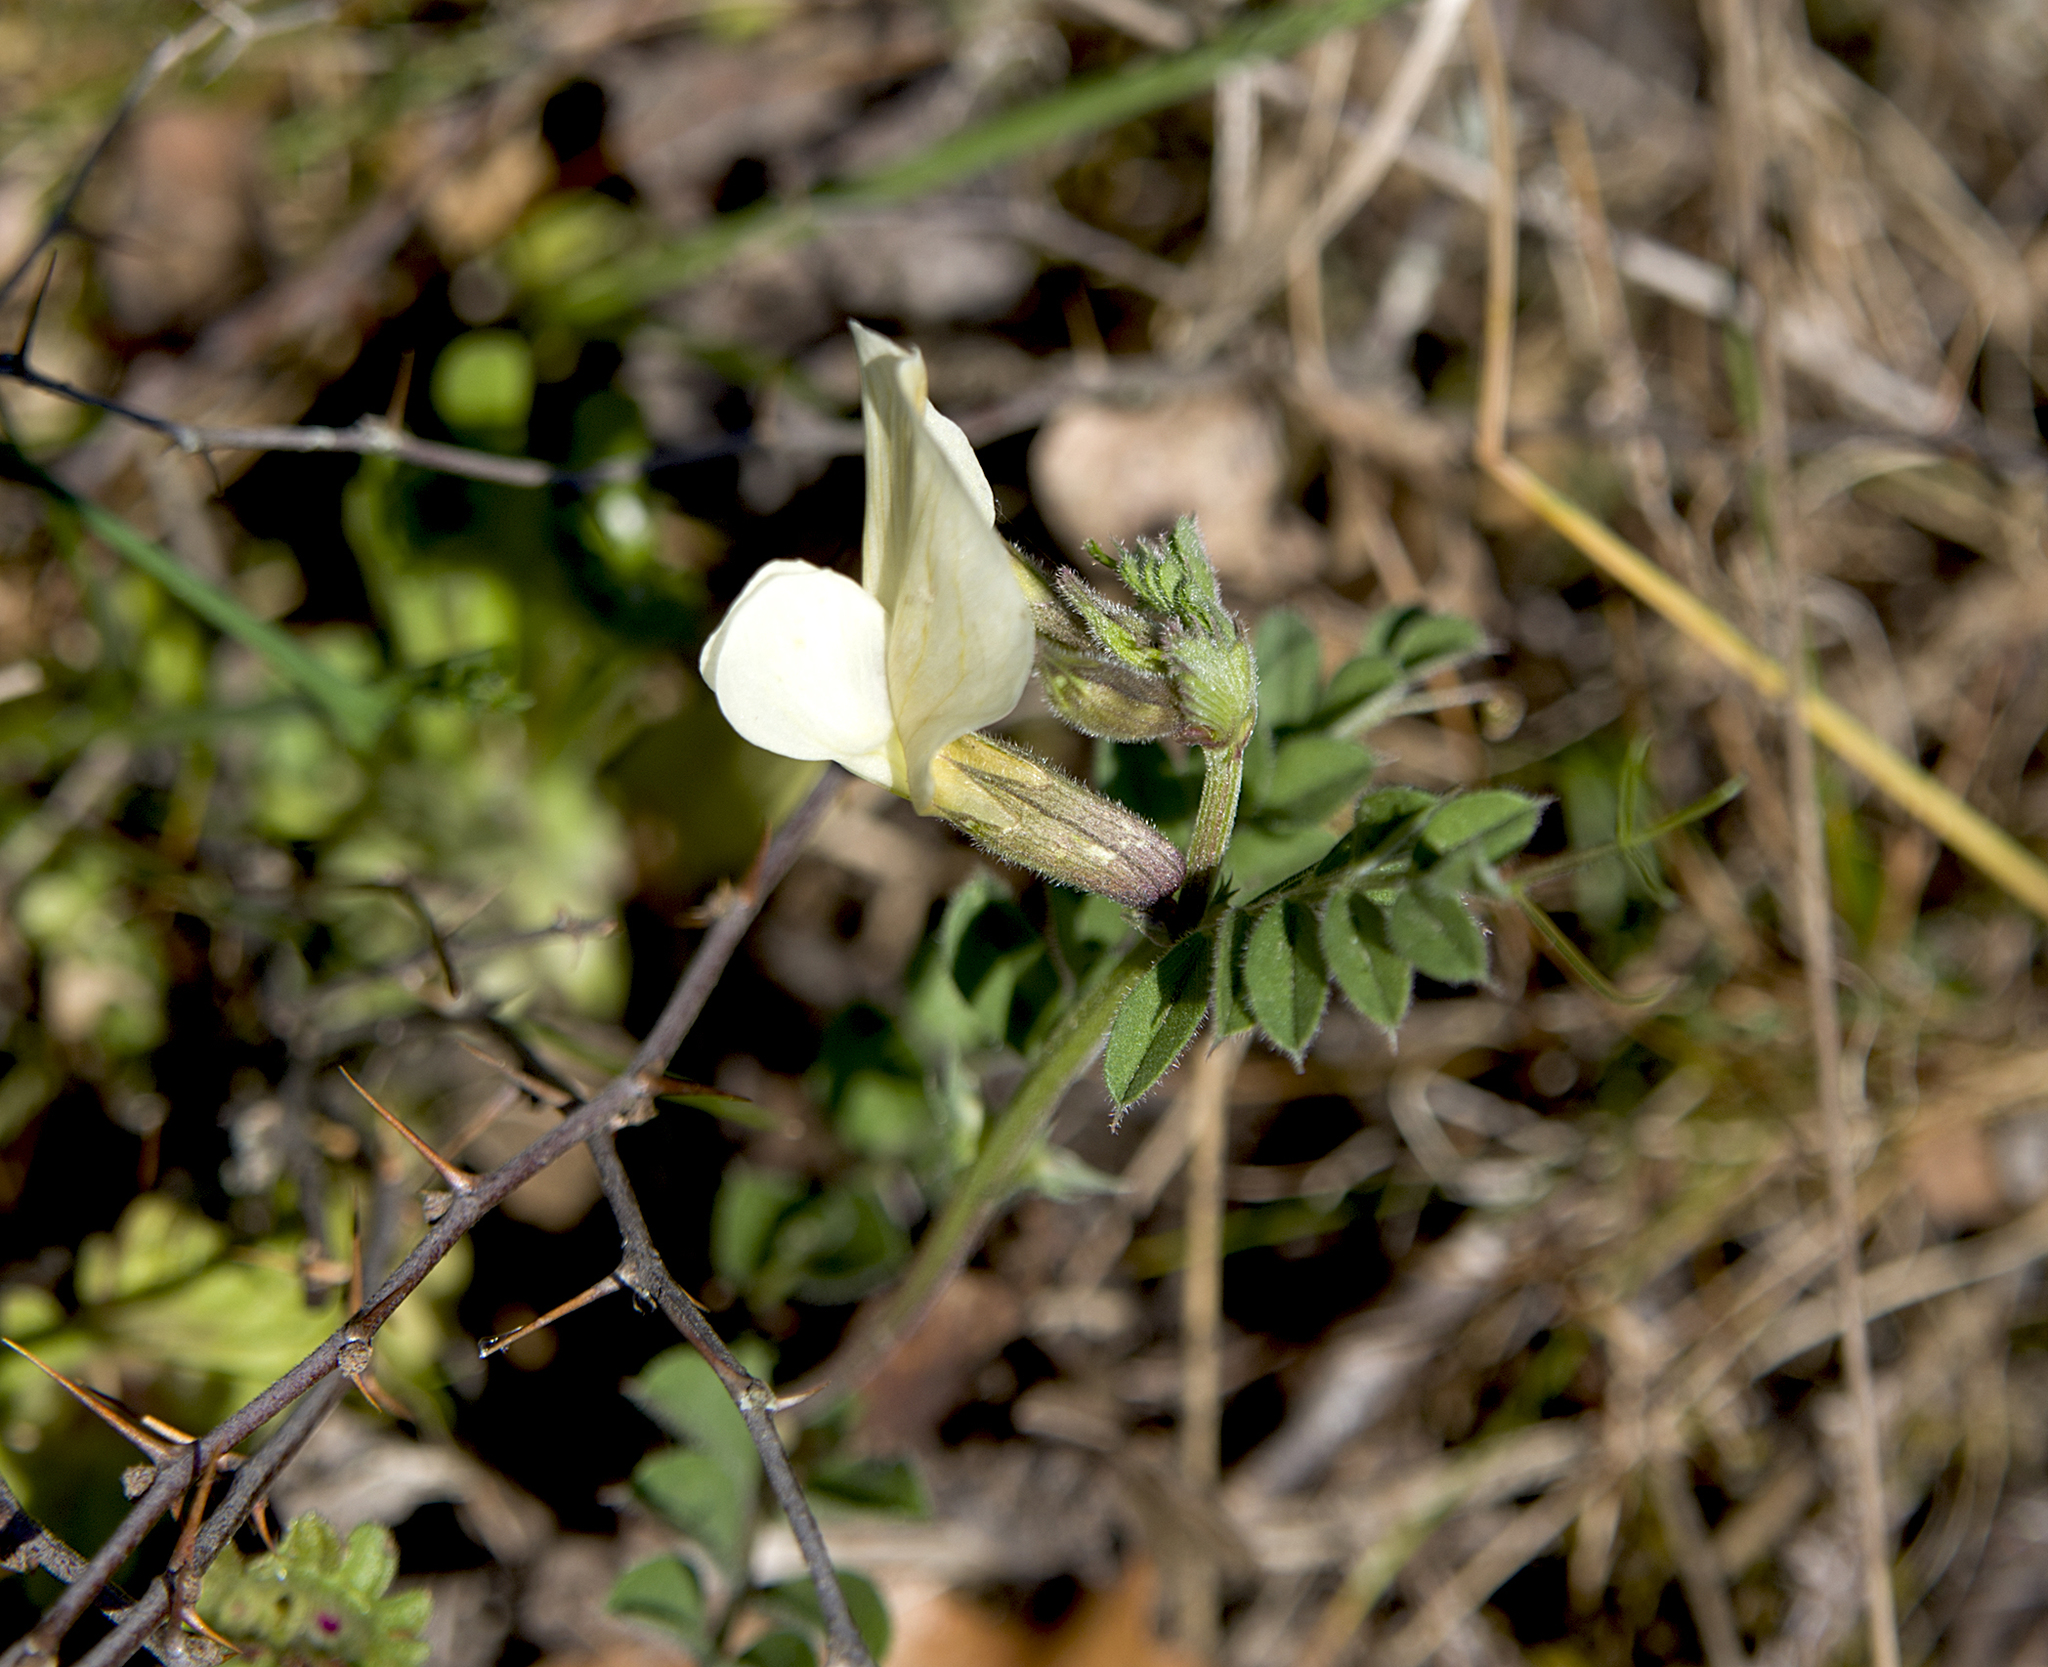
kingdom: Plantae
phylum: Tracheophyta
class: Magnoliopsida
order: Fabales
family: Fabaceae
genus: Vicia
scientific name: Vicia grandiflora
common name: Large yellow vetch
